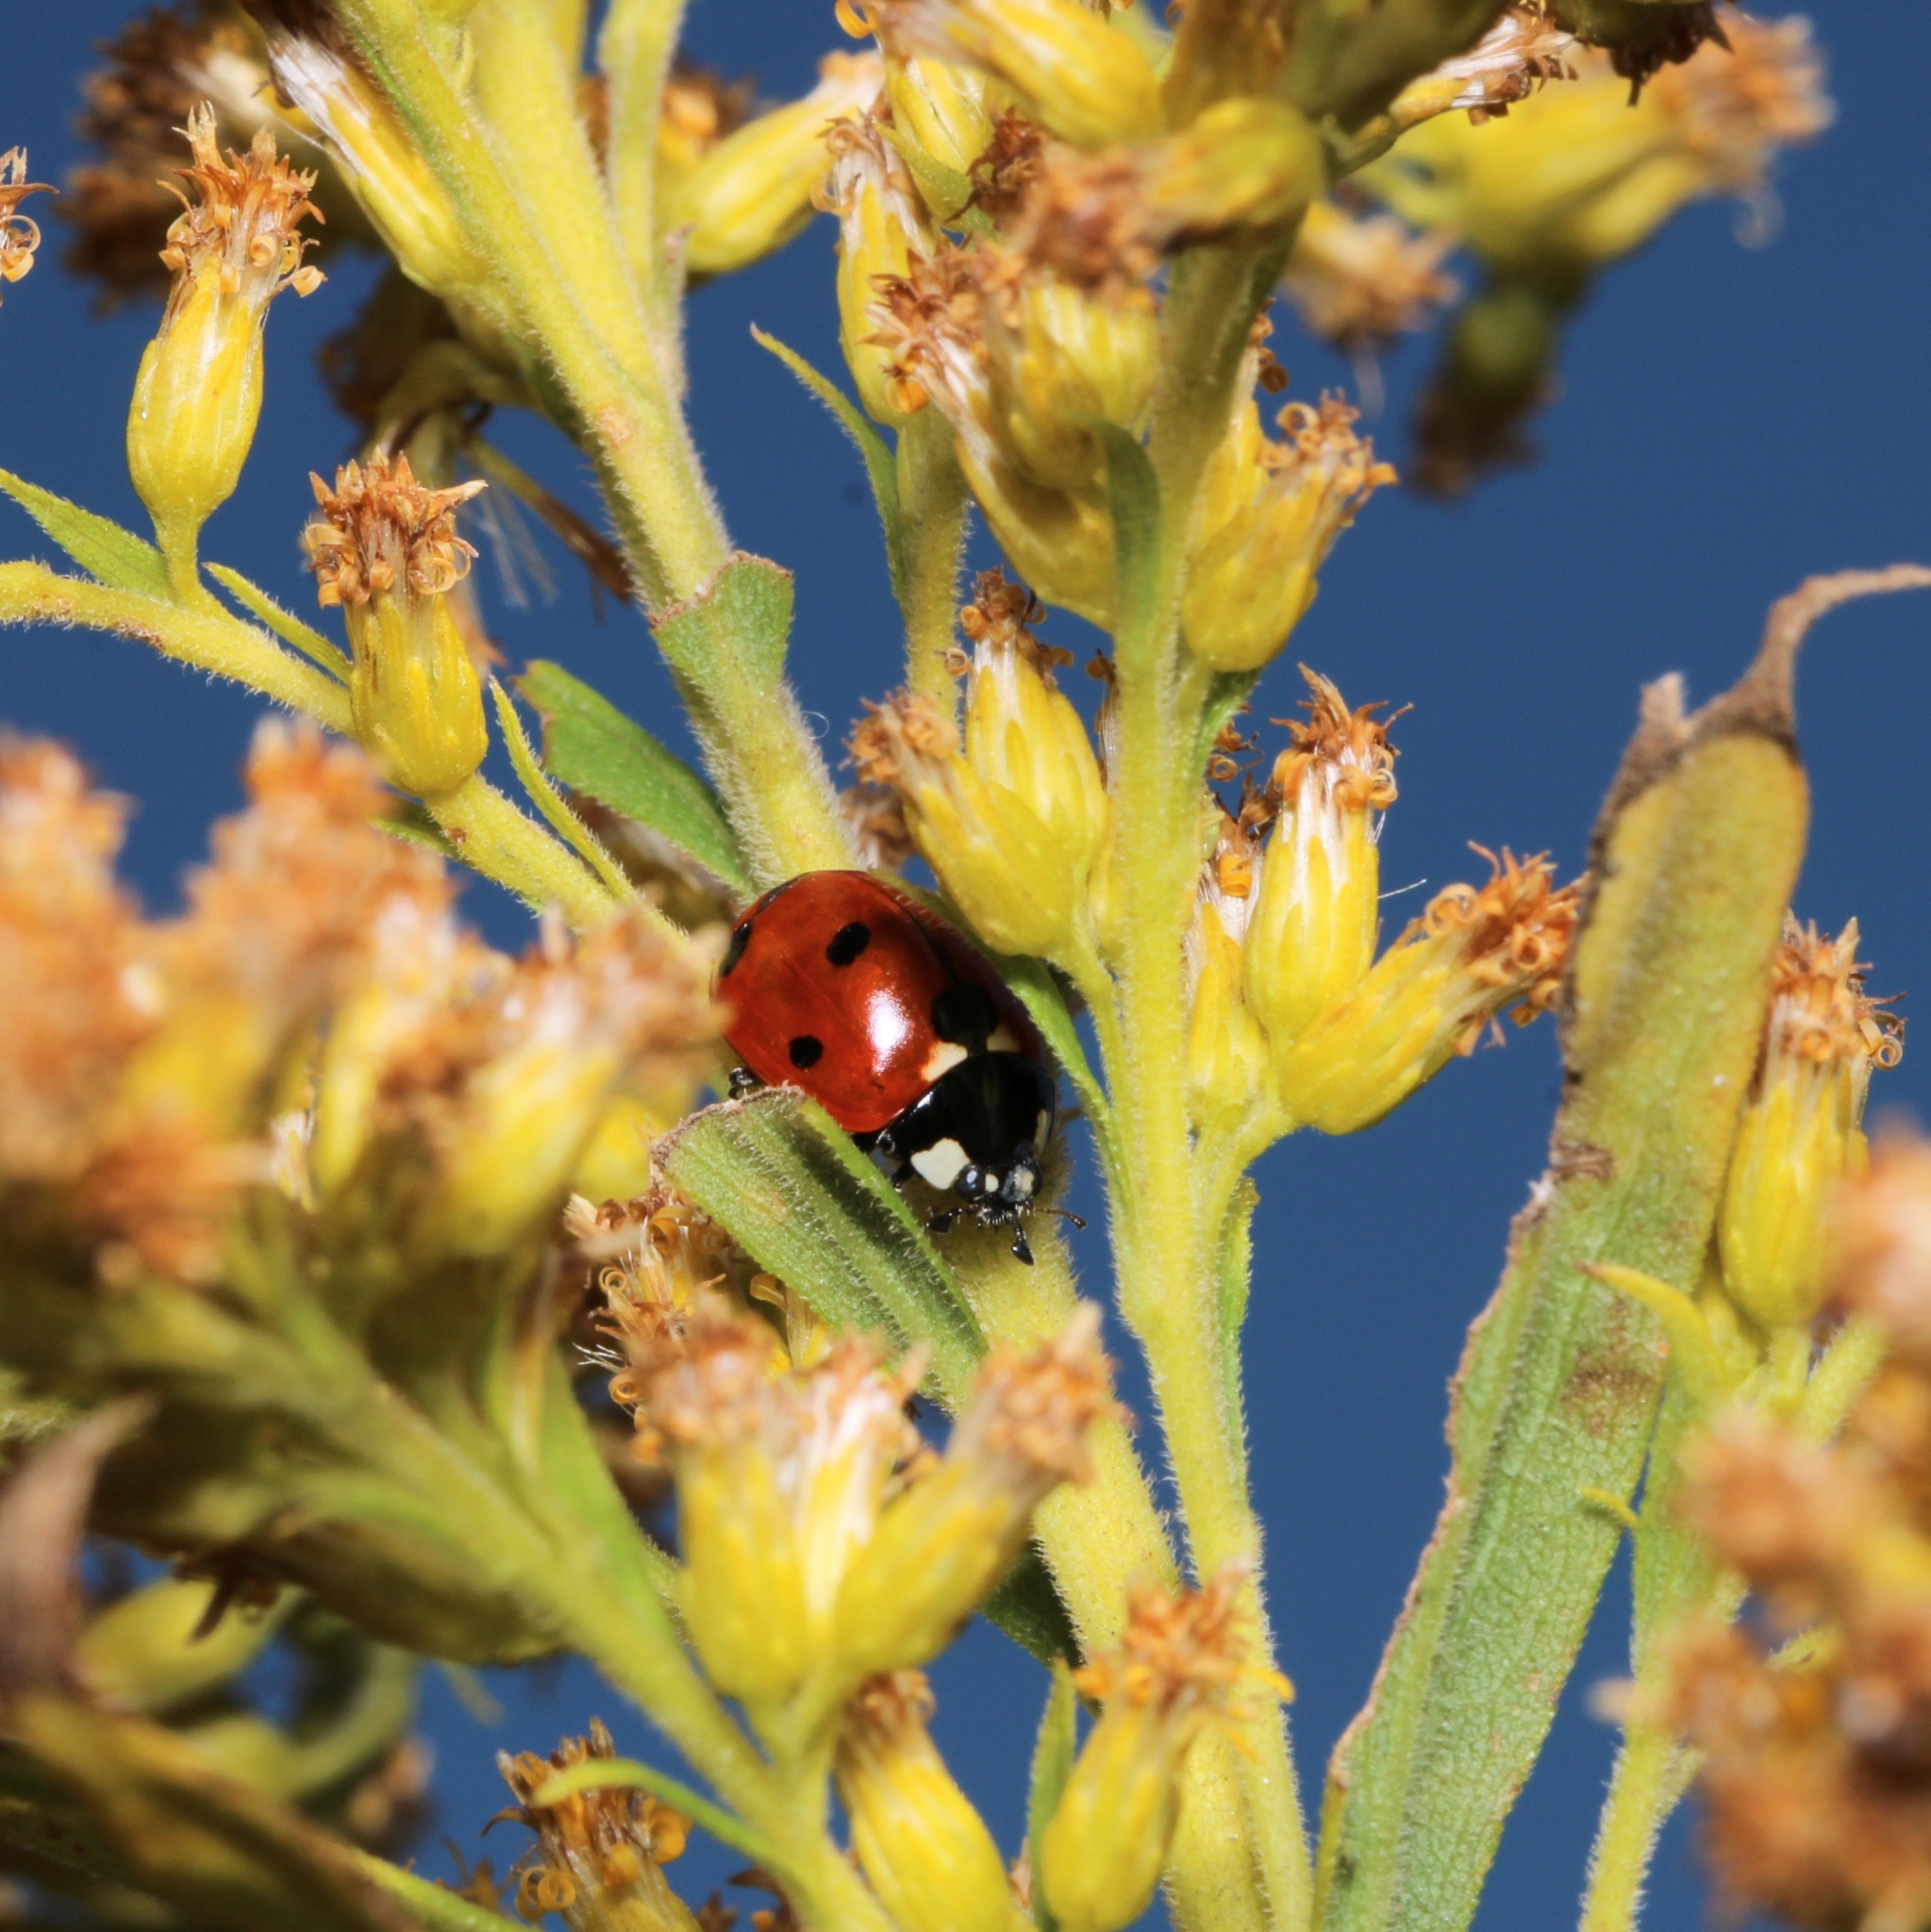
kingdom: Animalia
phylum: Arthropoda
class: Insecta
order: Coleoptera
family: Coccinellidae
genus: Coccinella
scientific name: Coccinella septempunctata
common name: Sevenspotted lady beetle
